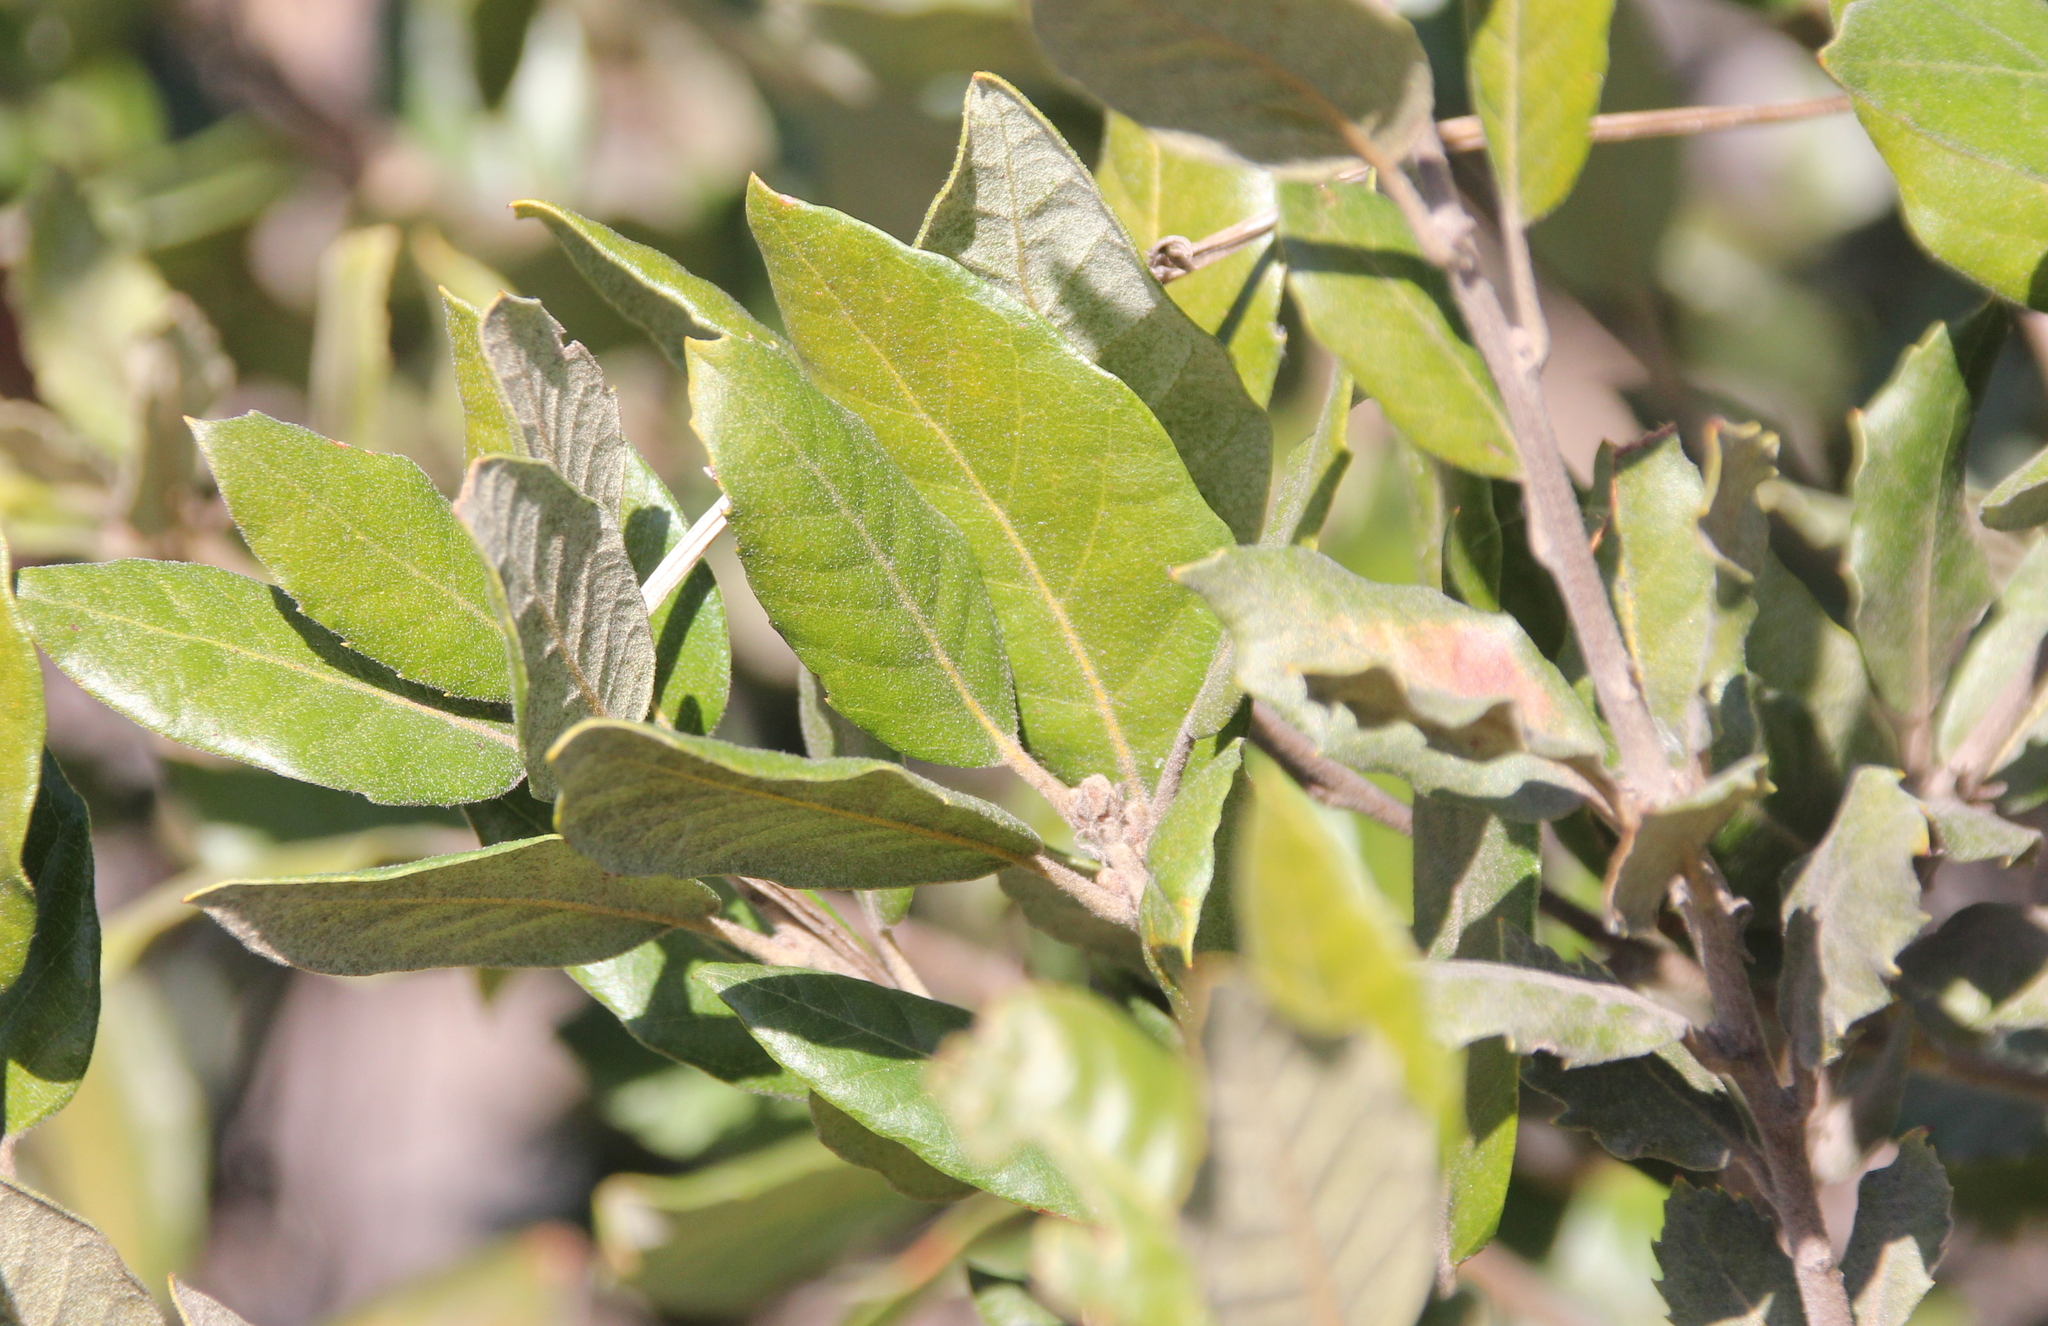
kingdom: Plantae
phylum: Tracheophyta
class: Magnoliopsida
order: Fagales
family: Fagaceae
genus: Quercus
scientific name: Quercus ilex
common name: Evergreen oak
